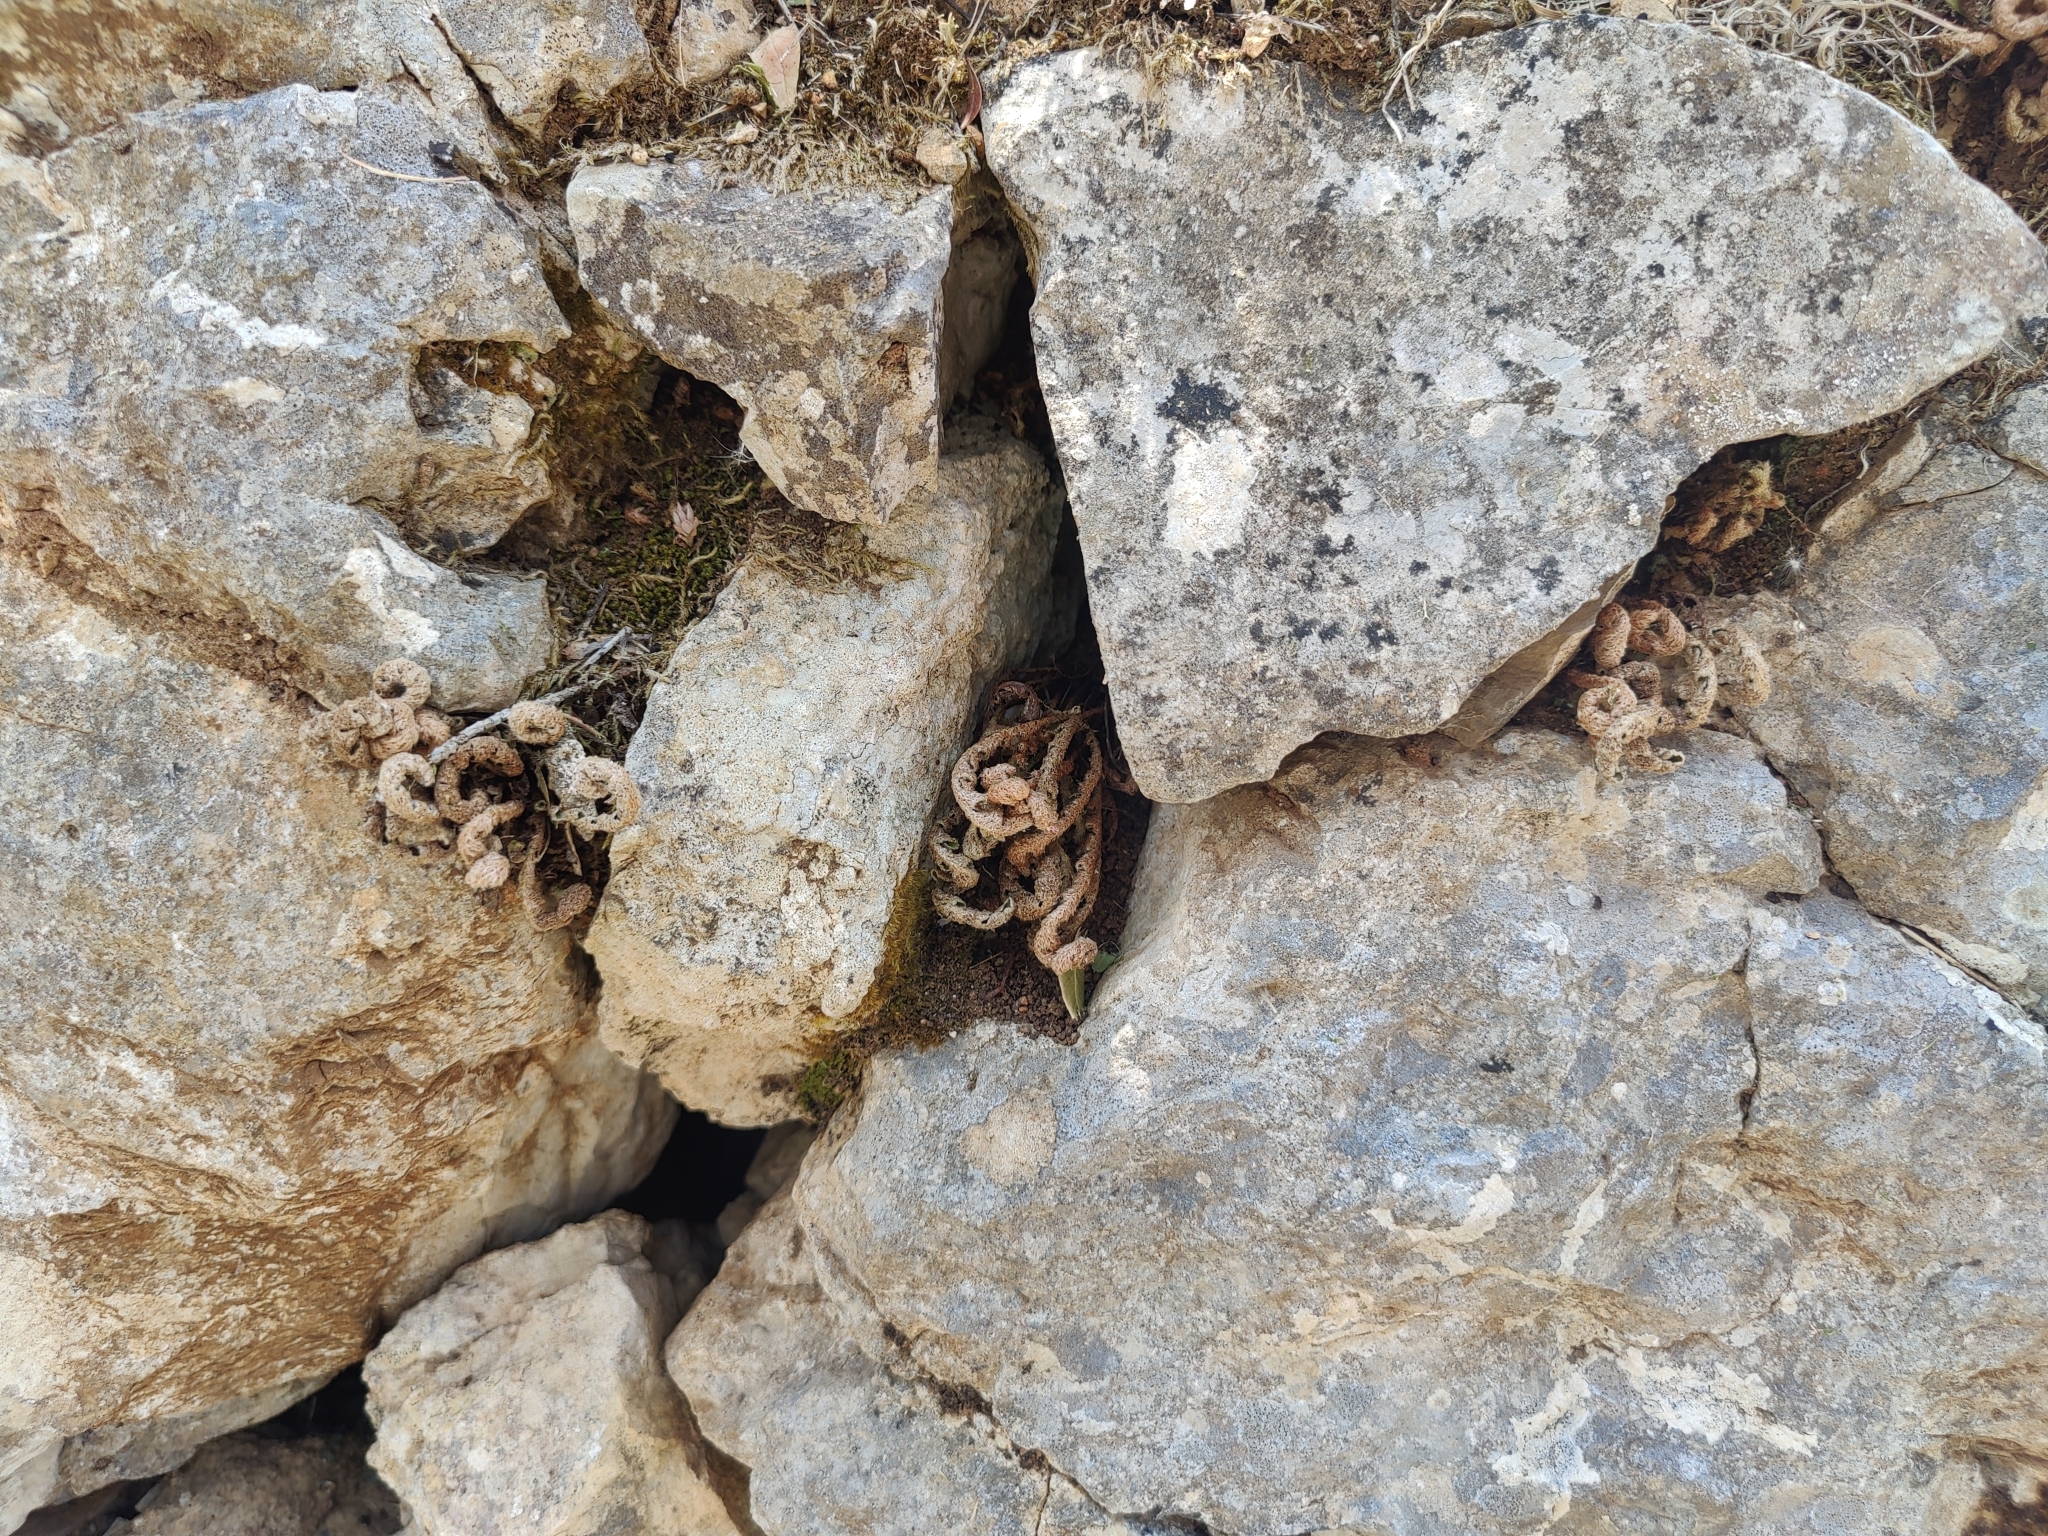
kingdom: Plantae
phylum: Tracheophyta
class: Polypodiopsida
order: Polypodiales
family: Aspleniaceae
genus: Asplenium
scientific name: Asplenium ceterach
